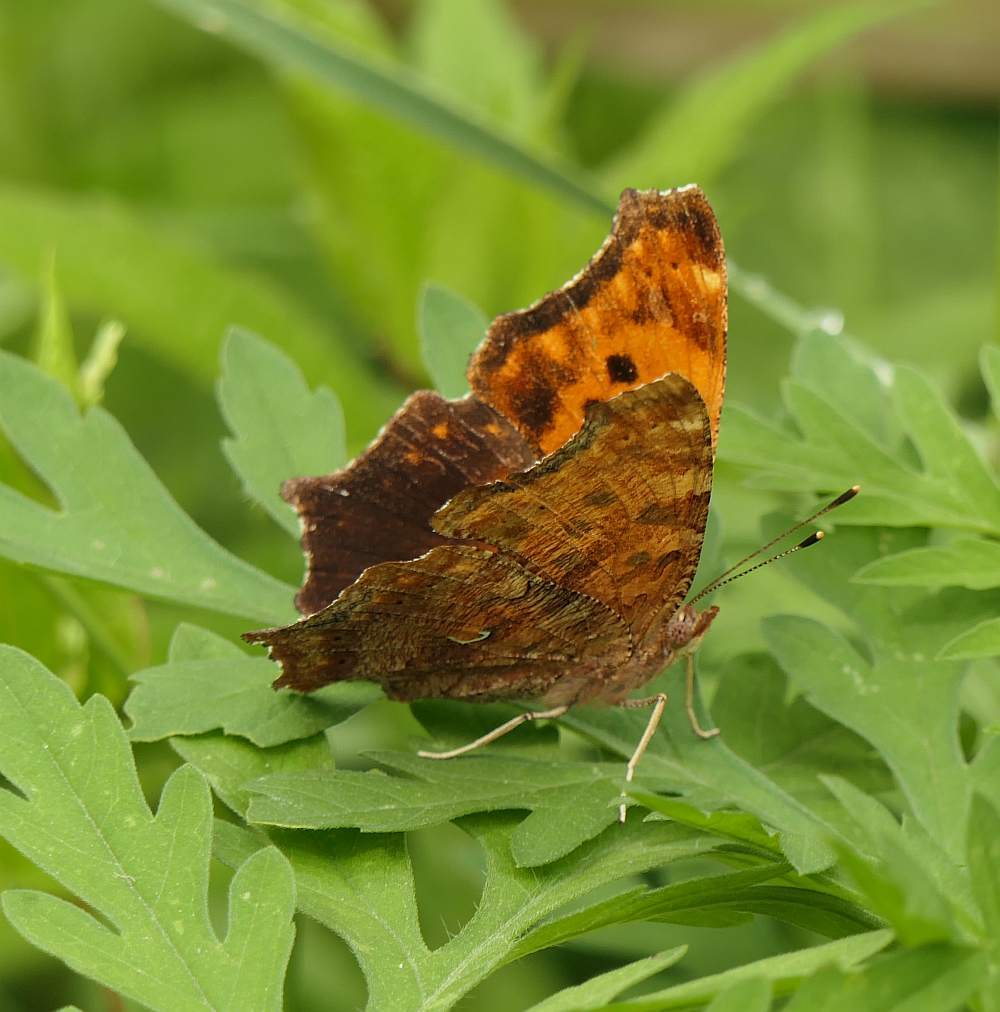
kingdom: Animalia
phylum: Arthropoda
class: Insecta
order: Lepidoptera
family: Nymphalidae
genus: Polygonia
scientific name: Polygonia comma
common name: Eastern comma
